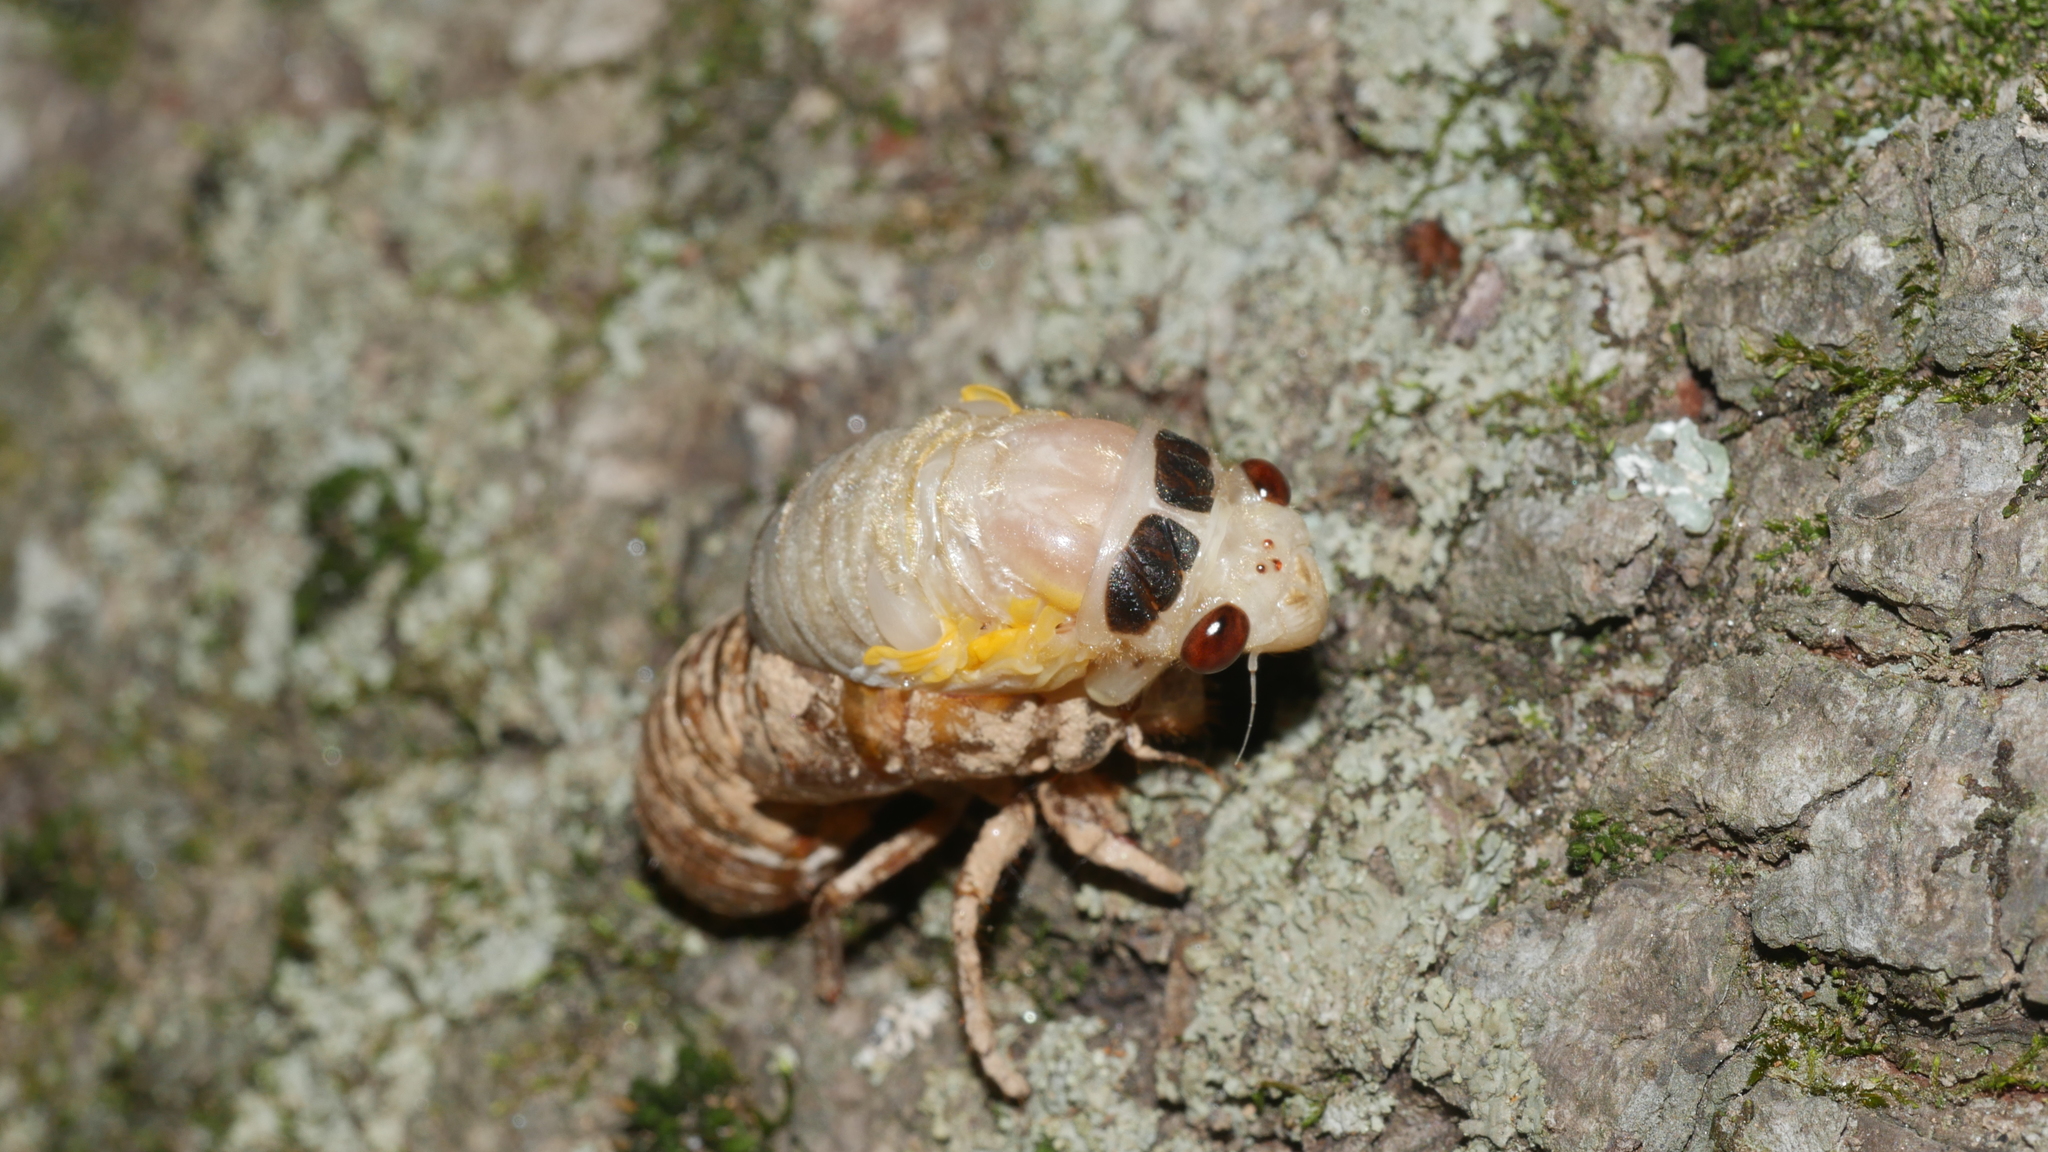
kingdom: Animalia
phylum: Arthropoda
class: Insecta
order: Hemiptera
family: Cicadidae
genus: Magicicada
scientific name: Magicicada
